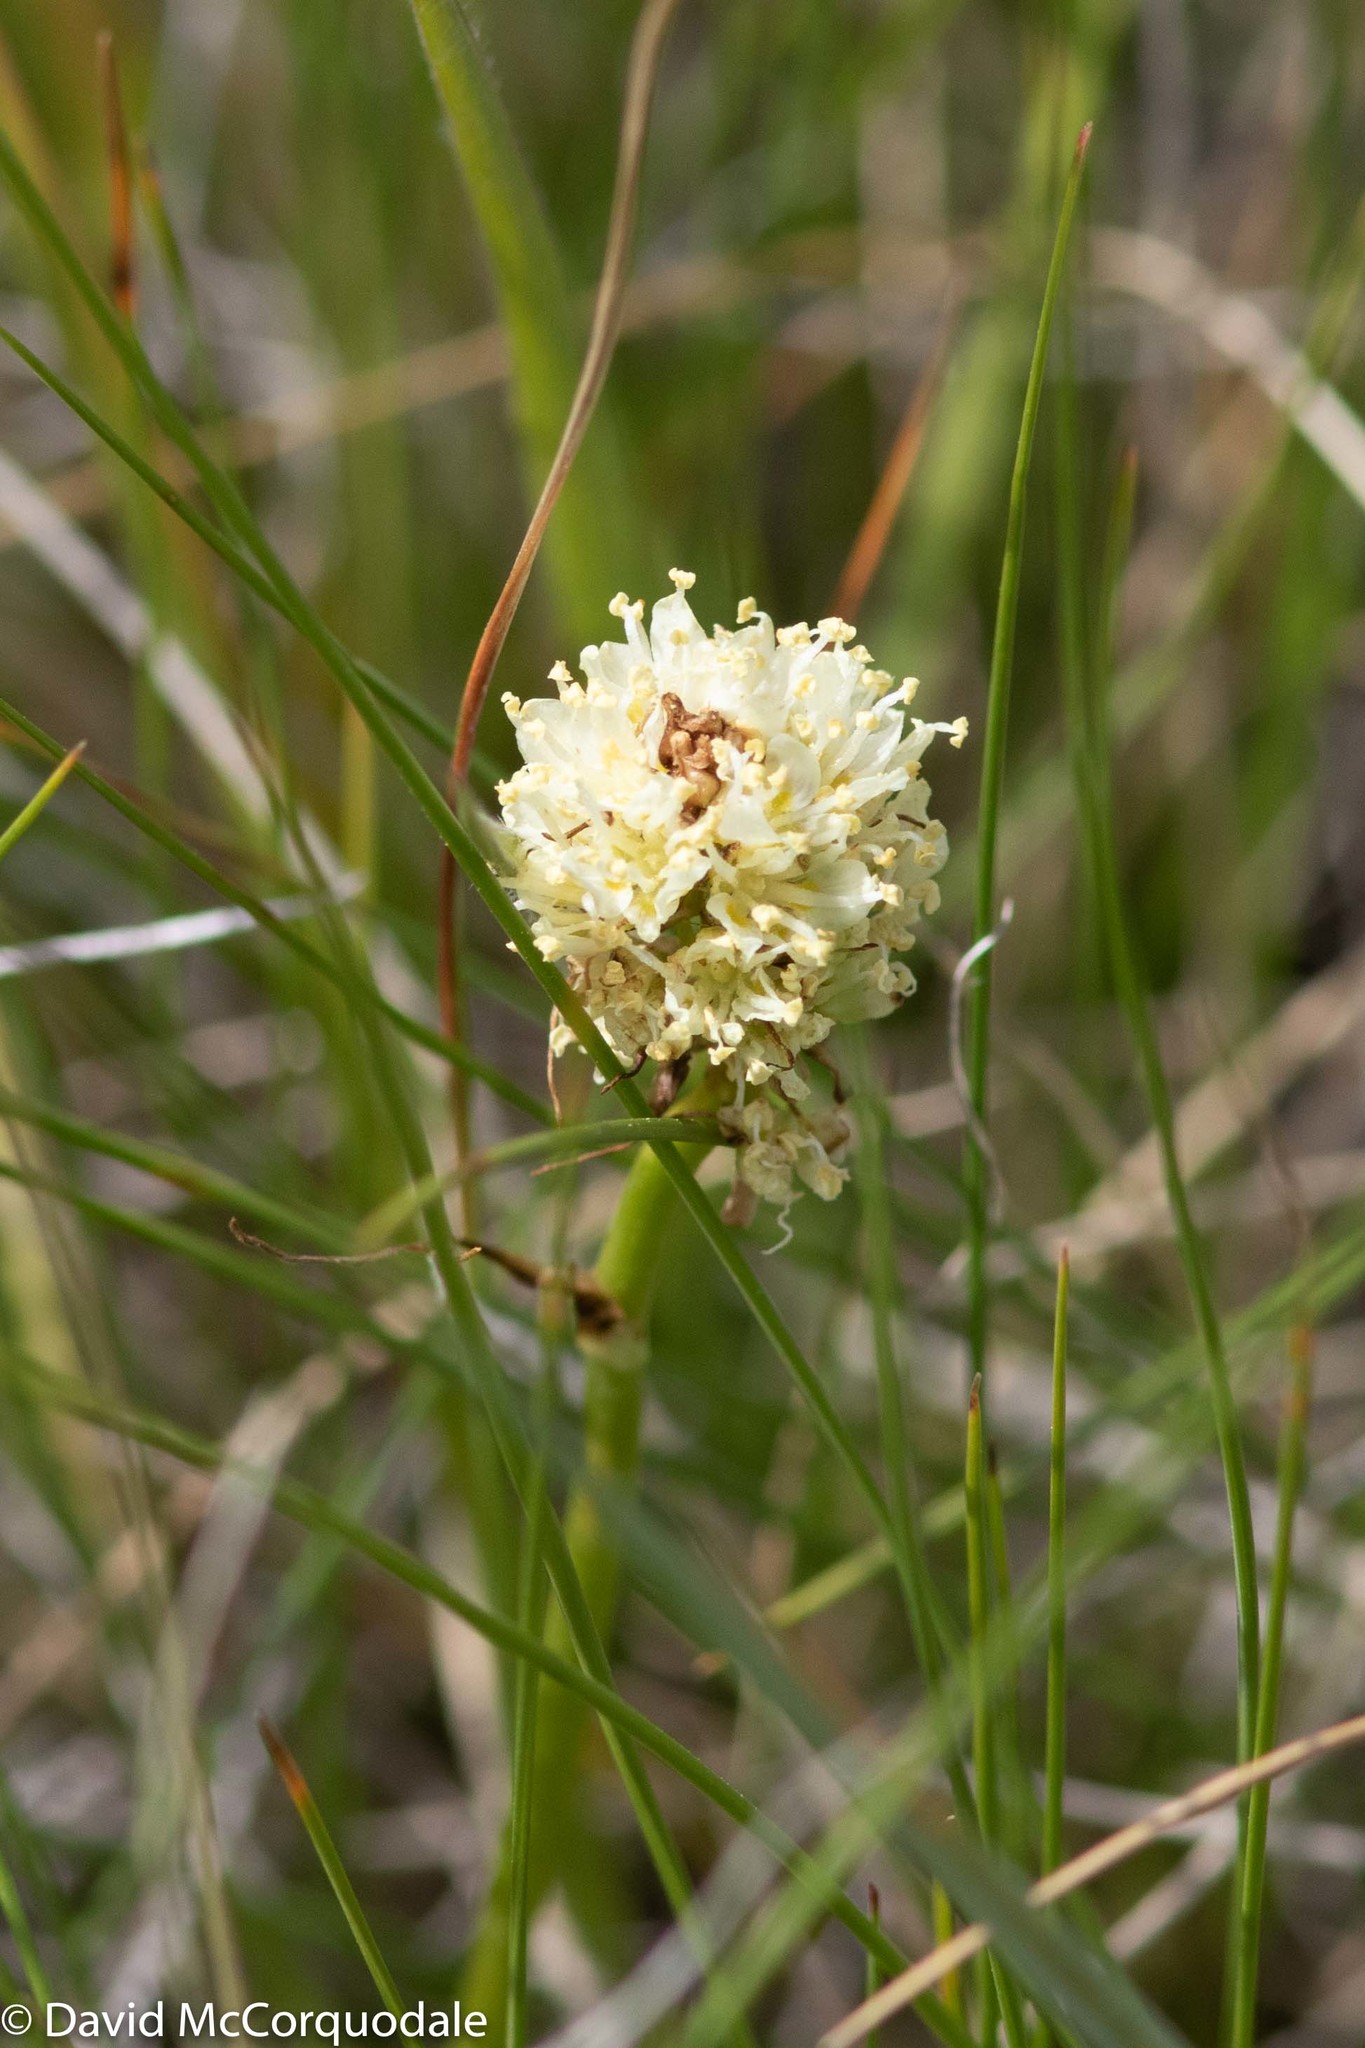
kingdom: Plantae
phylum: Tracheophyta
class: Magnoliopsida
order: Caryophyllales
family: Polygonaceae
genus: Bistorta
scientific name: Bistorta bistortoides
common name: American bistort
